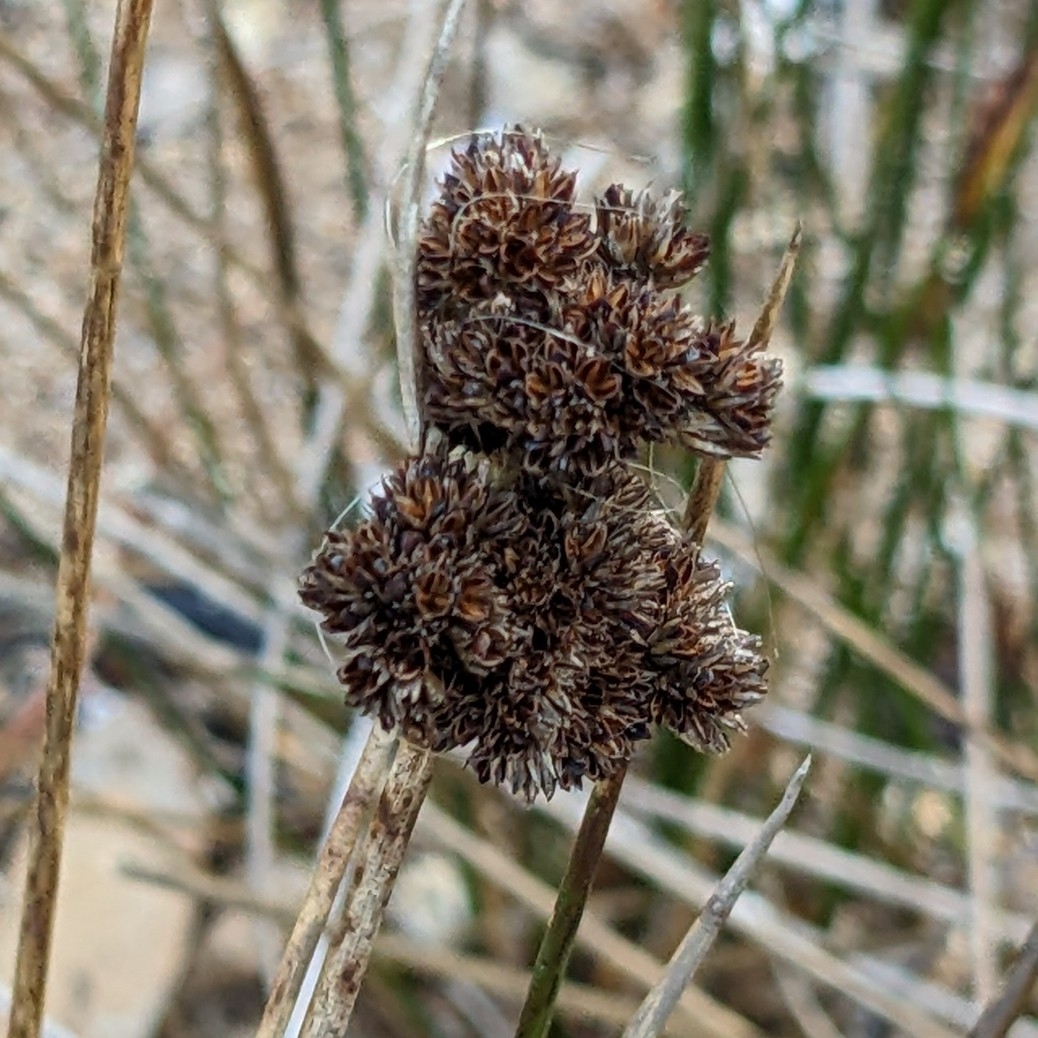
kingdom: Plantae
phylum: Tracheophyta
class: Liliopsida
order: Poales
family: Juncaceae
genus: Juncus
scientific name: Juncus kraussii
